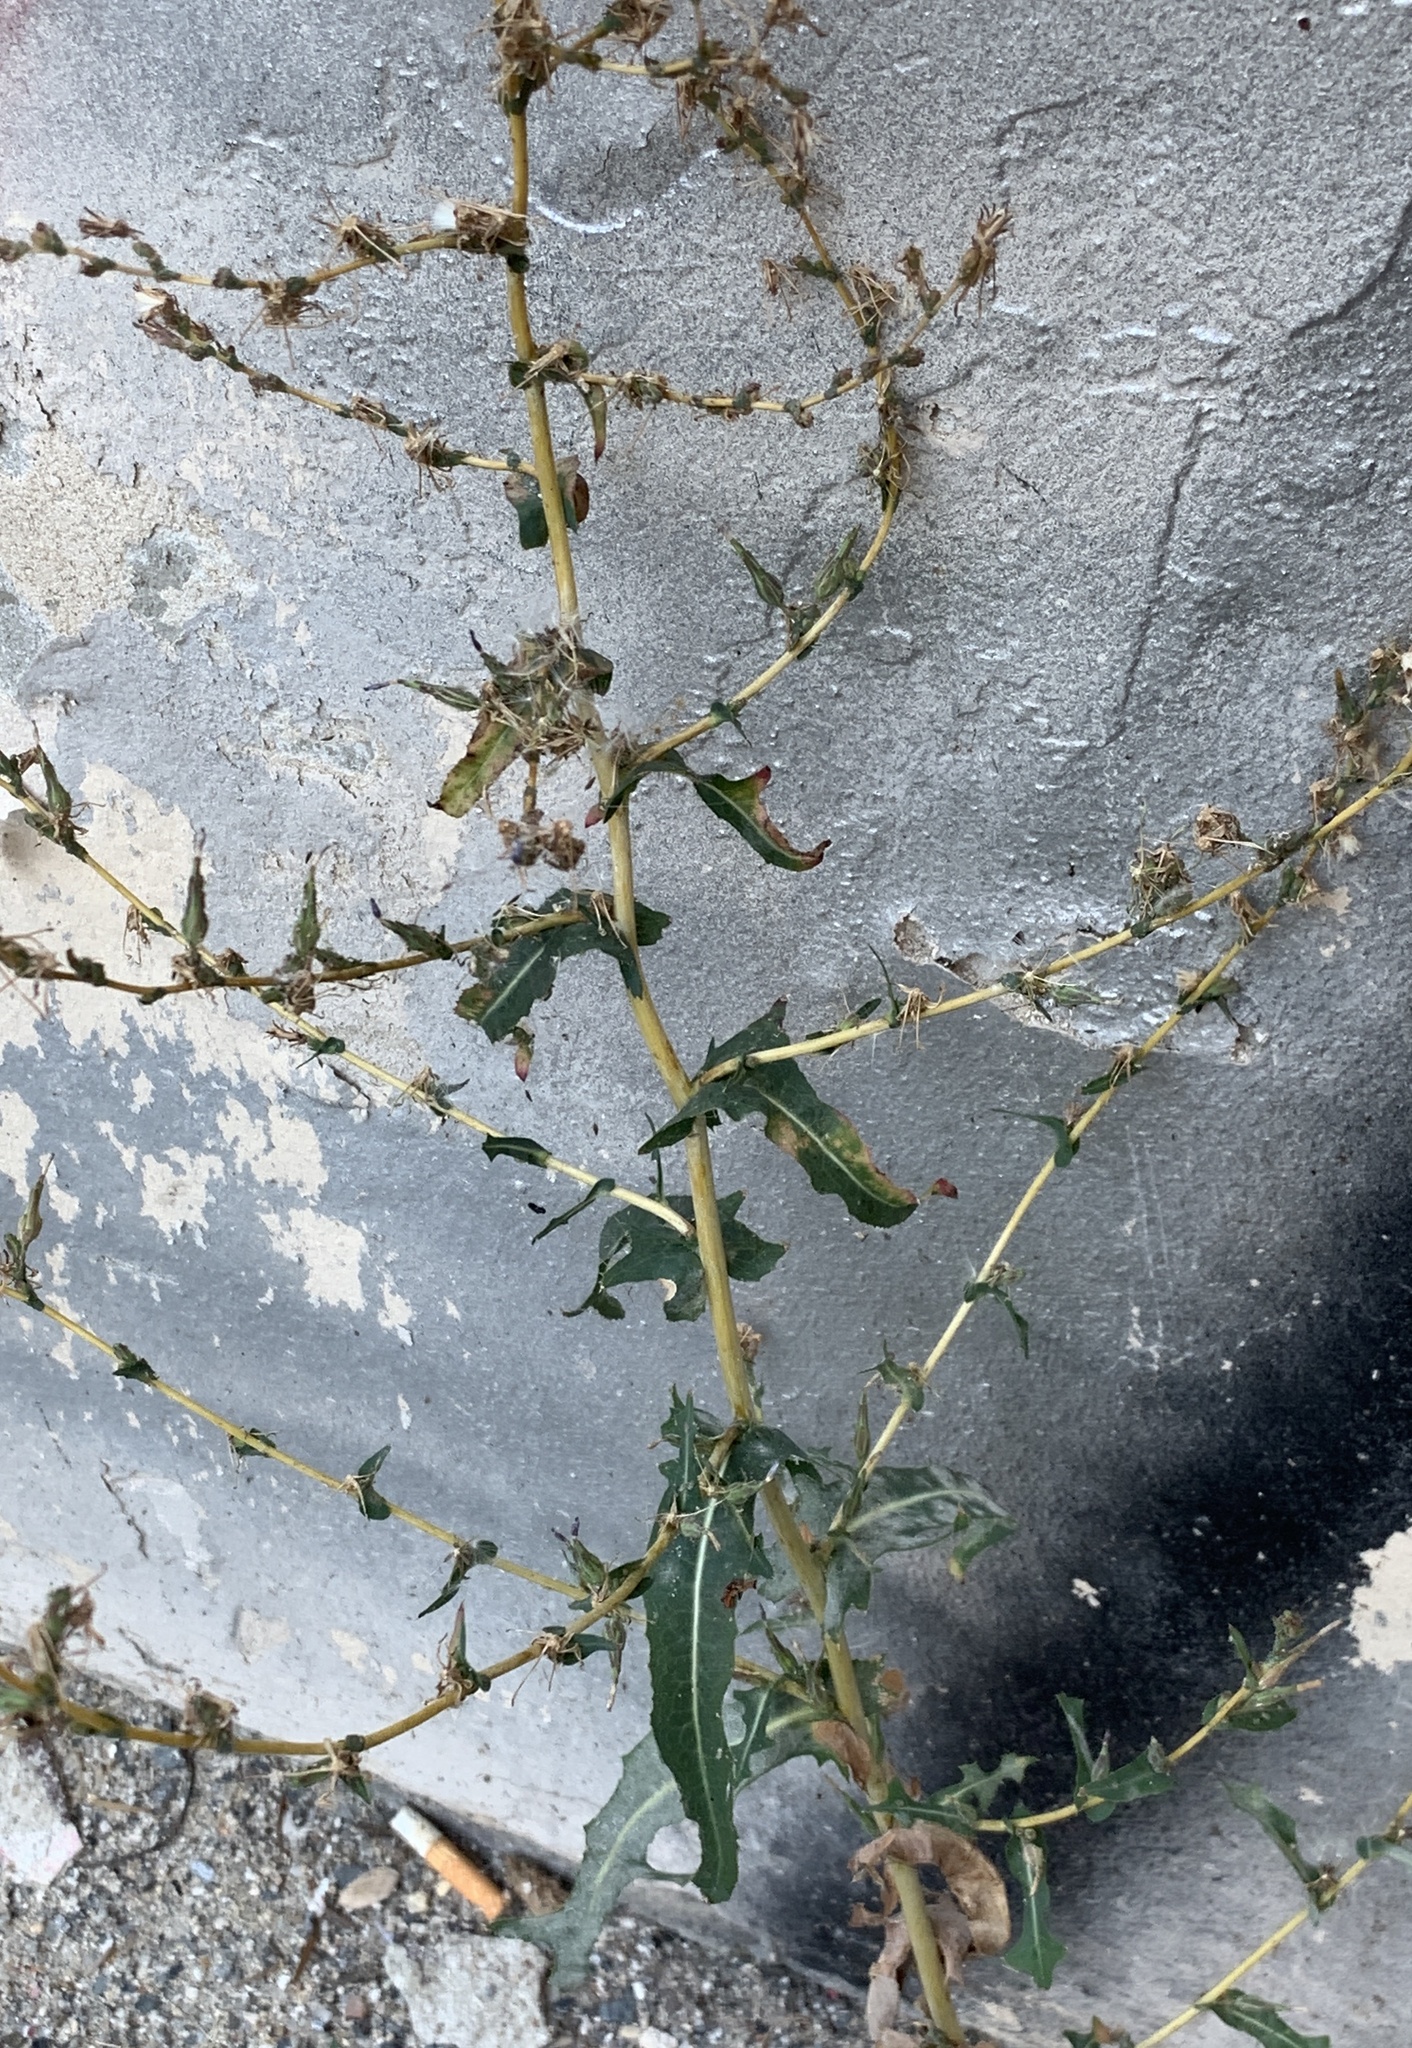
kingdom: Plantae
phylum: Tracheophyta
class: Magnoliopsida
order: Asterales
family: Asteraceae
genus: Lactuca
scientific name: Lactuca serriola
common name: Prickly lettuce
